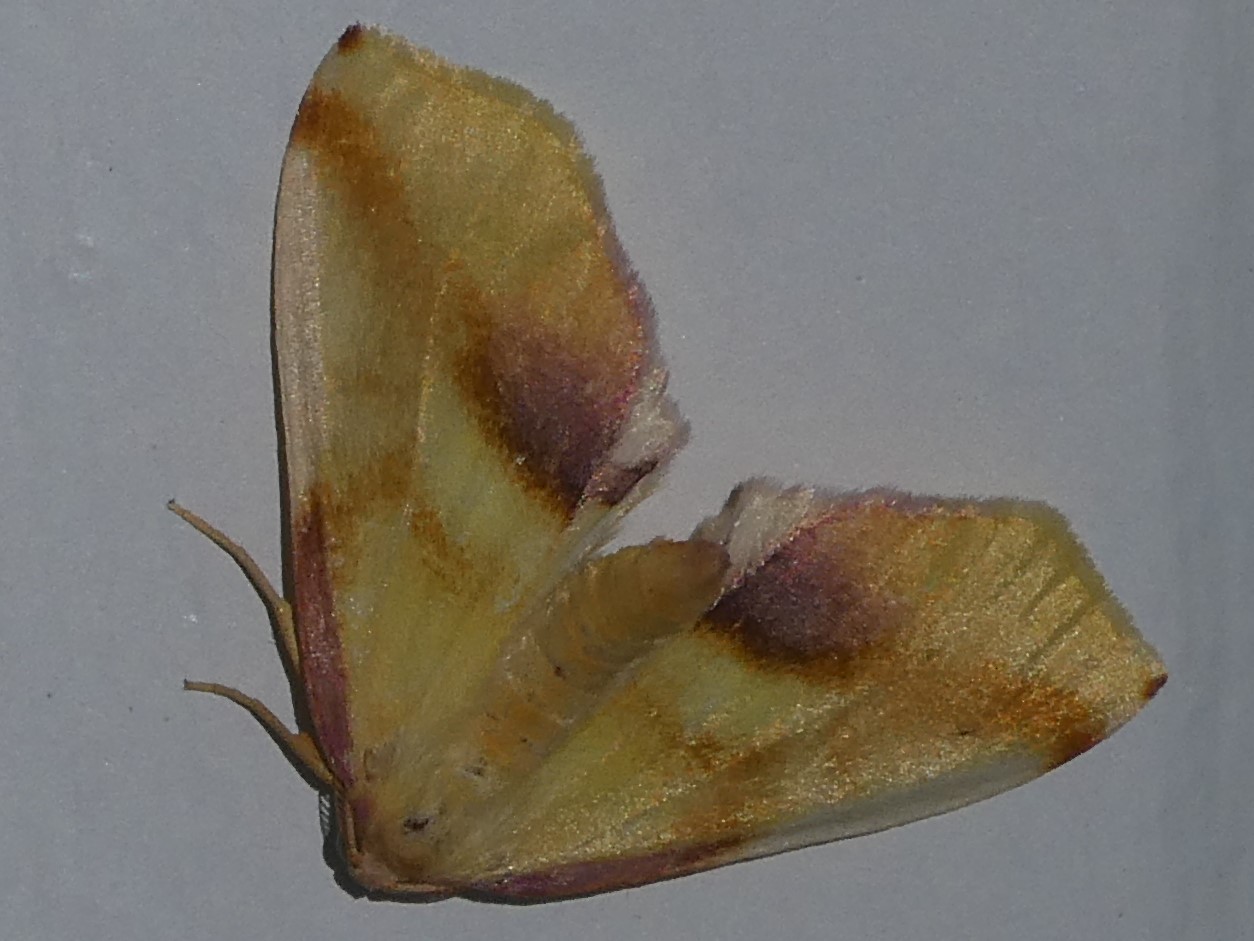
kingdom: Animalia
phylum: Arthropoda
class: Insecta
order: Lepidoptera
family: Geometridae
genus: Plagodis
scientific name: Plagodis serinaria
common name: Lemon plagodis
